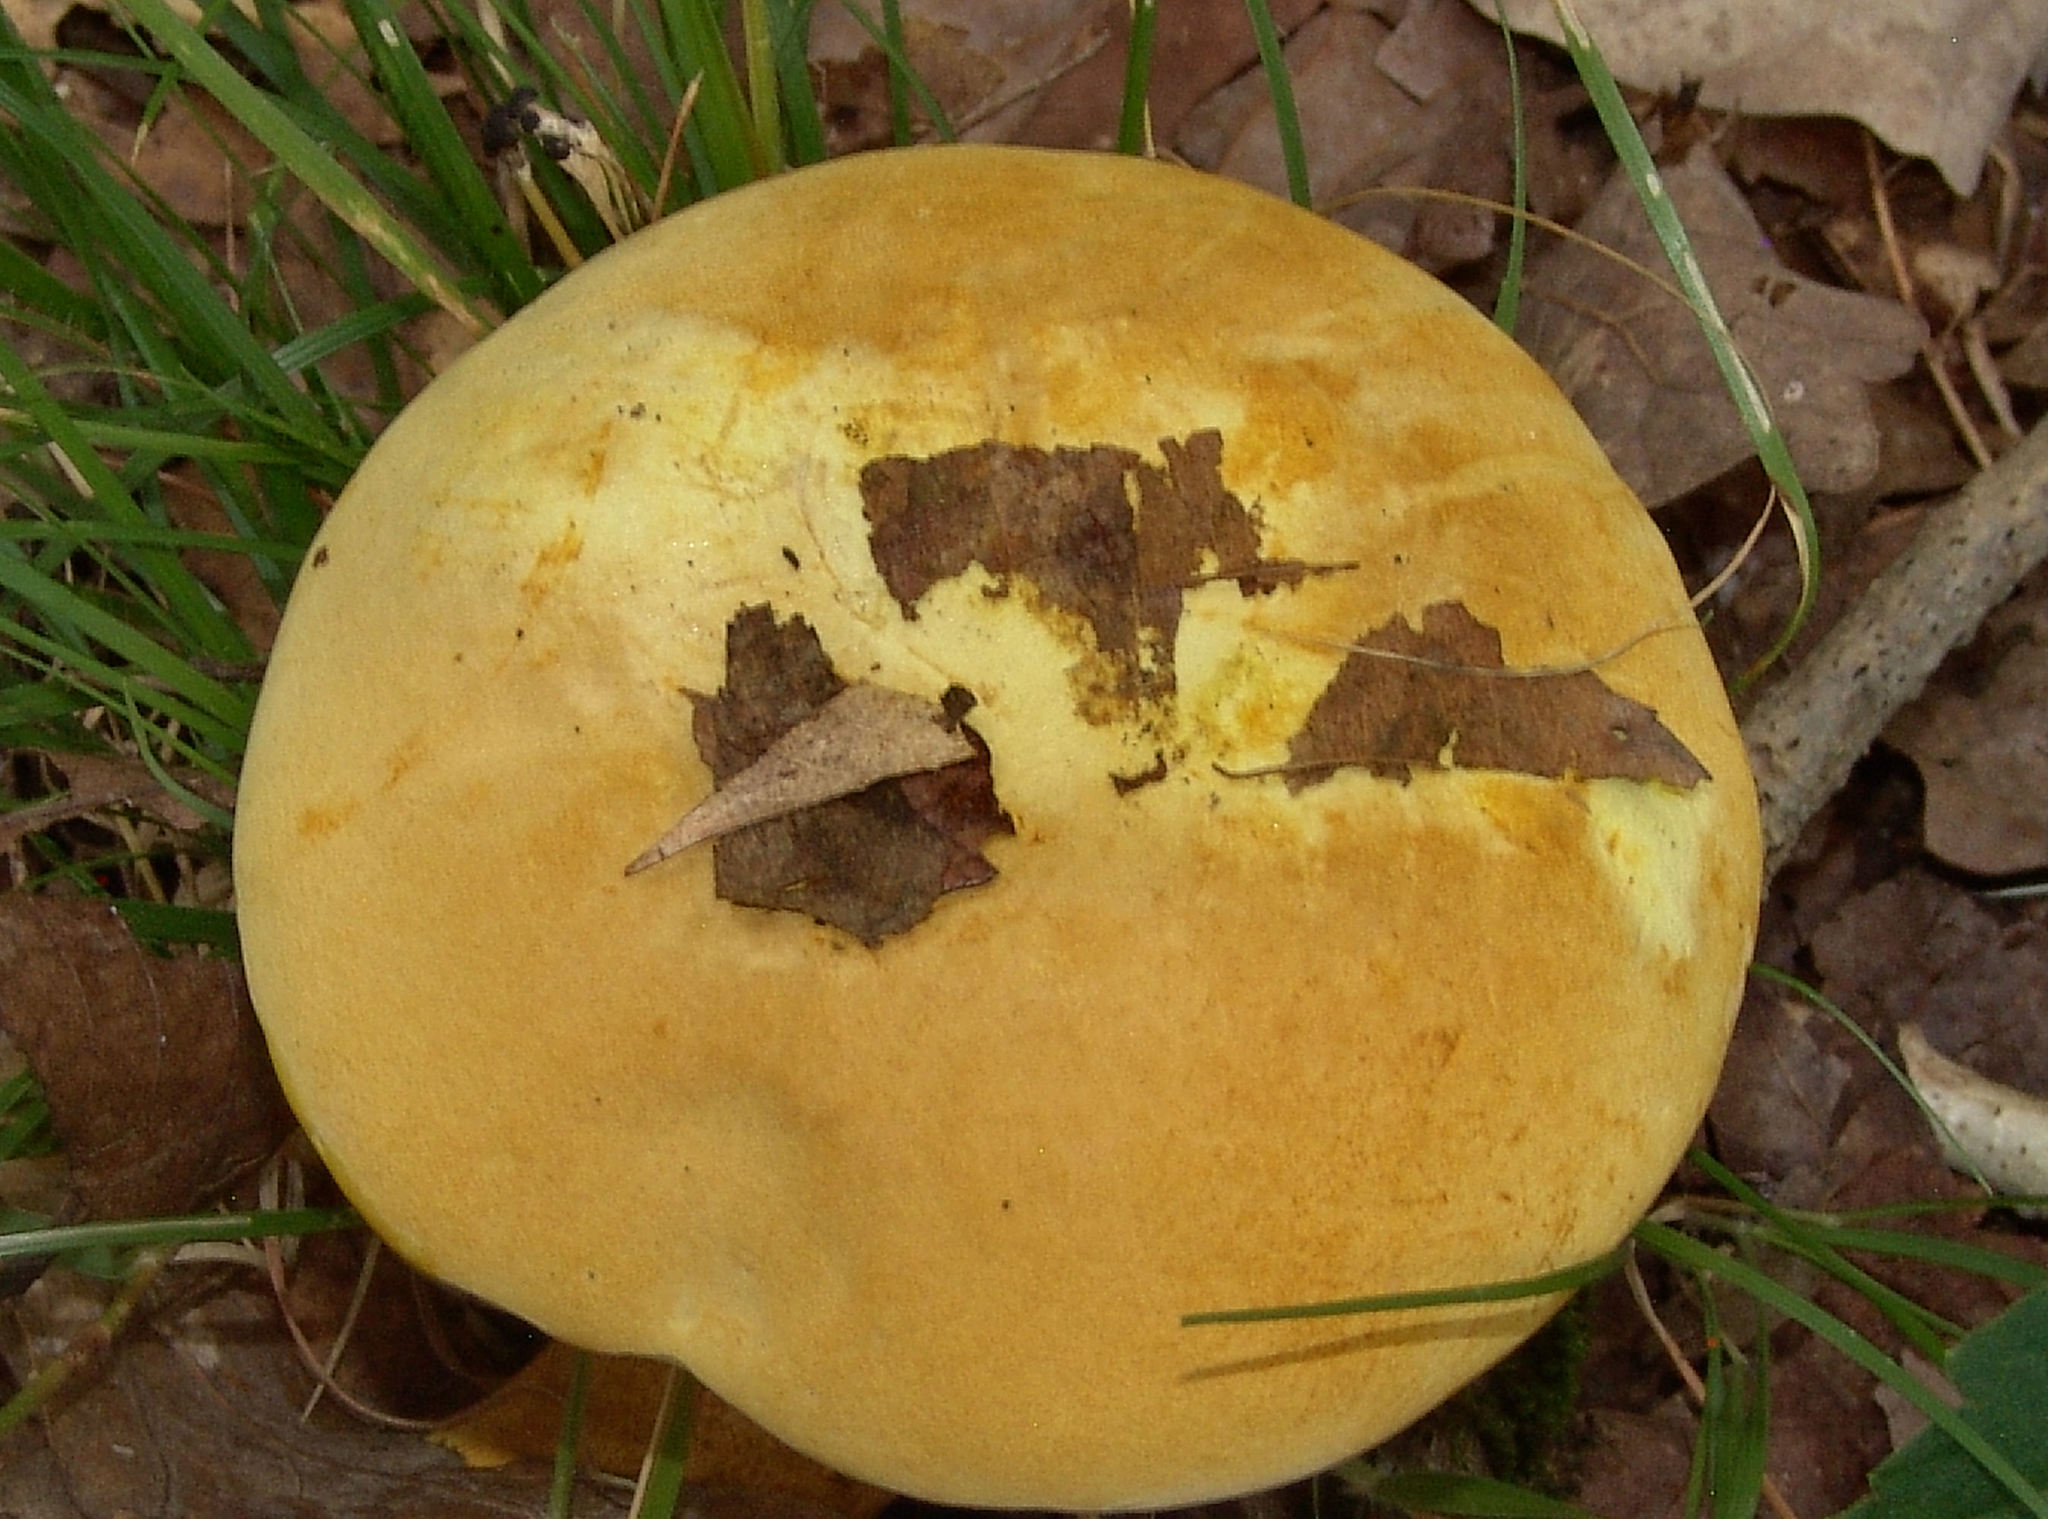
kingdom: Fungi
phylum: Basidiomycota
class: Agaricomycetes
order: Boletales
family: Boletaceae
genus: Retiboletus
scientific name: Retiboletus ornatipes
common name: Ornate-stalked bolete
